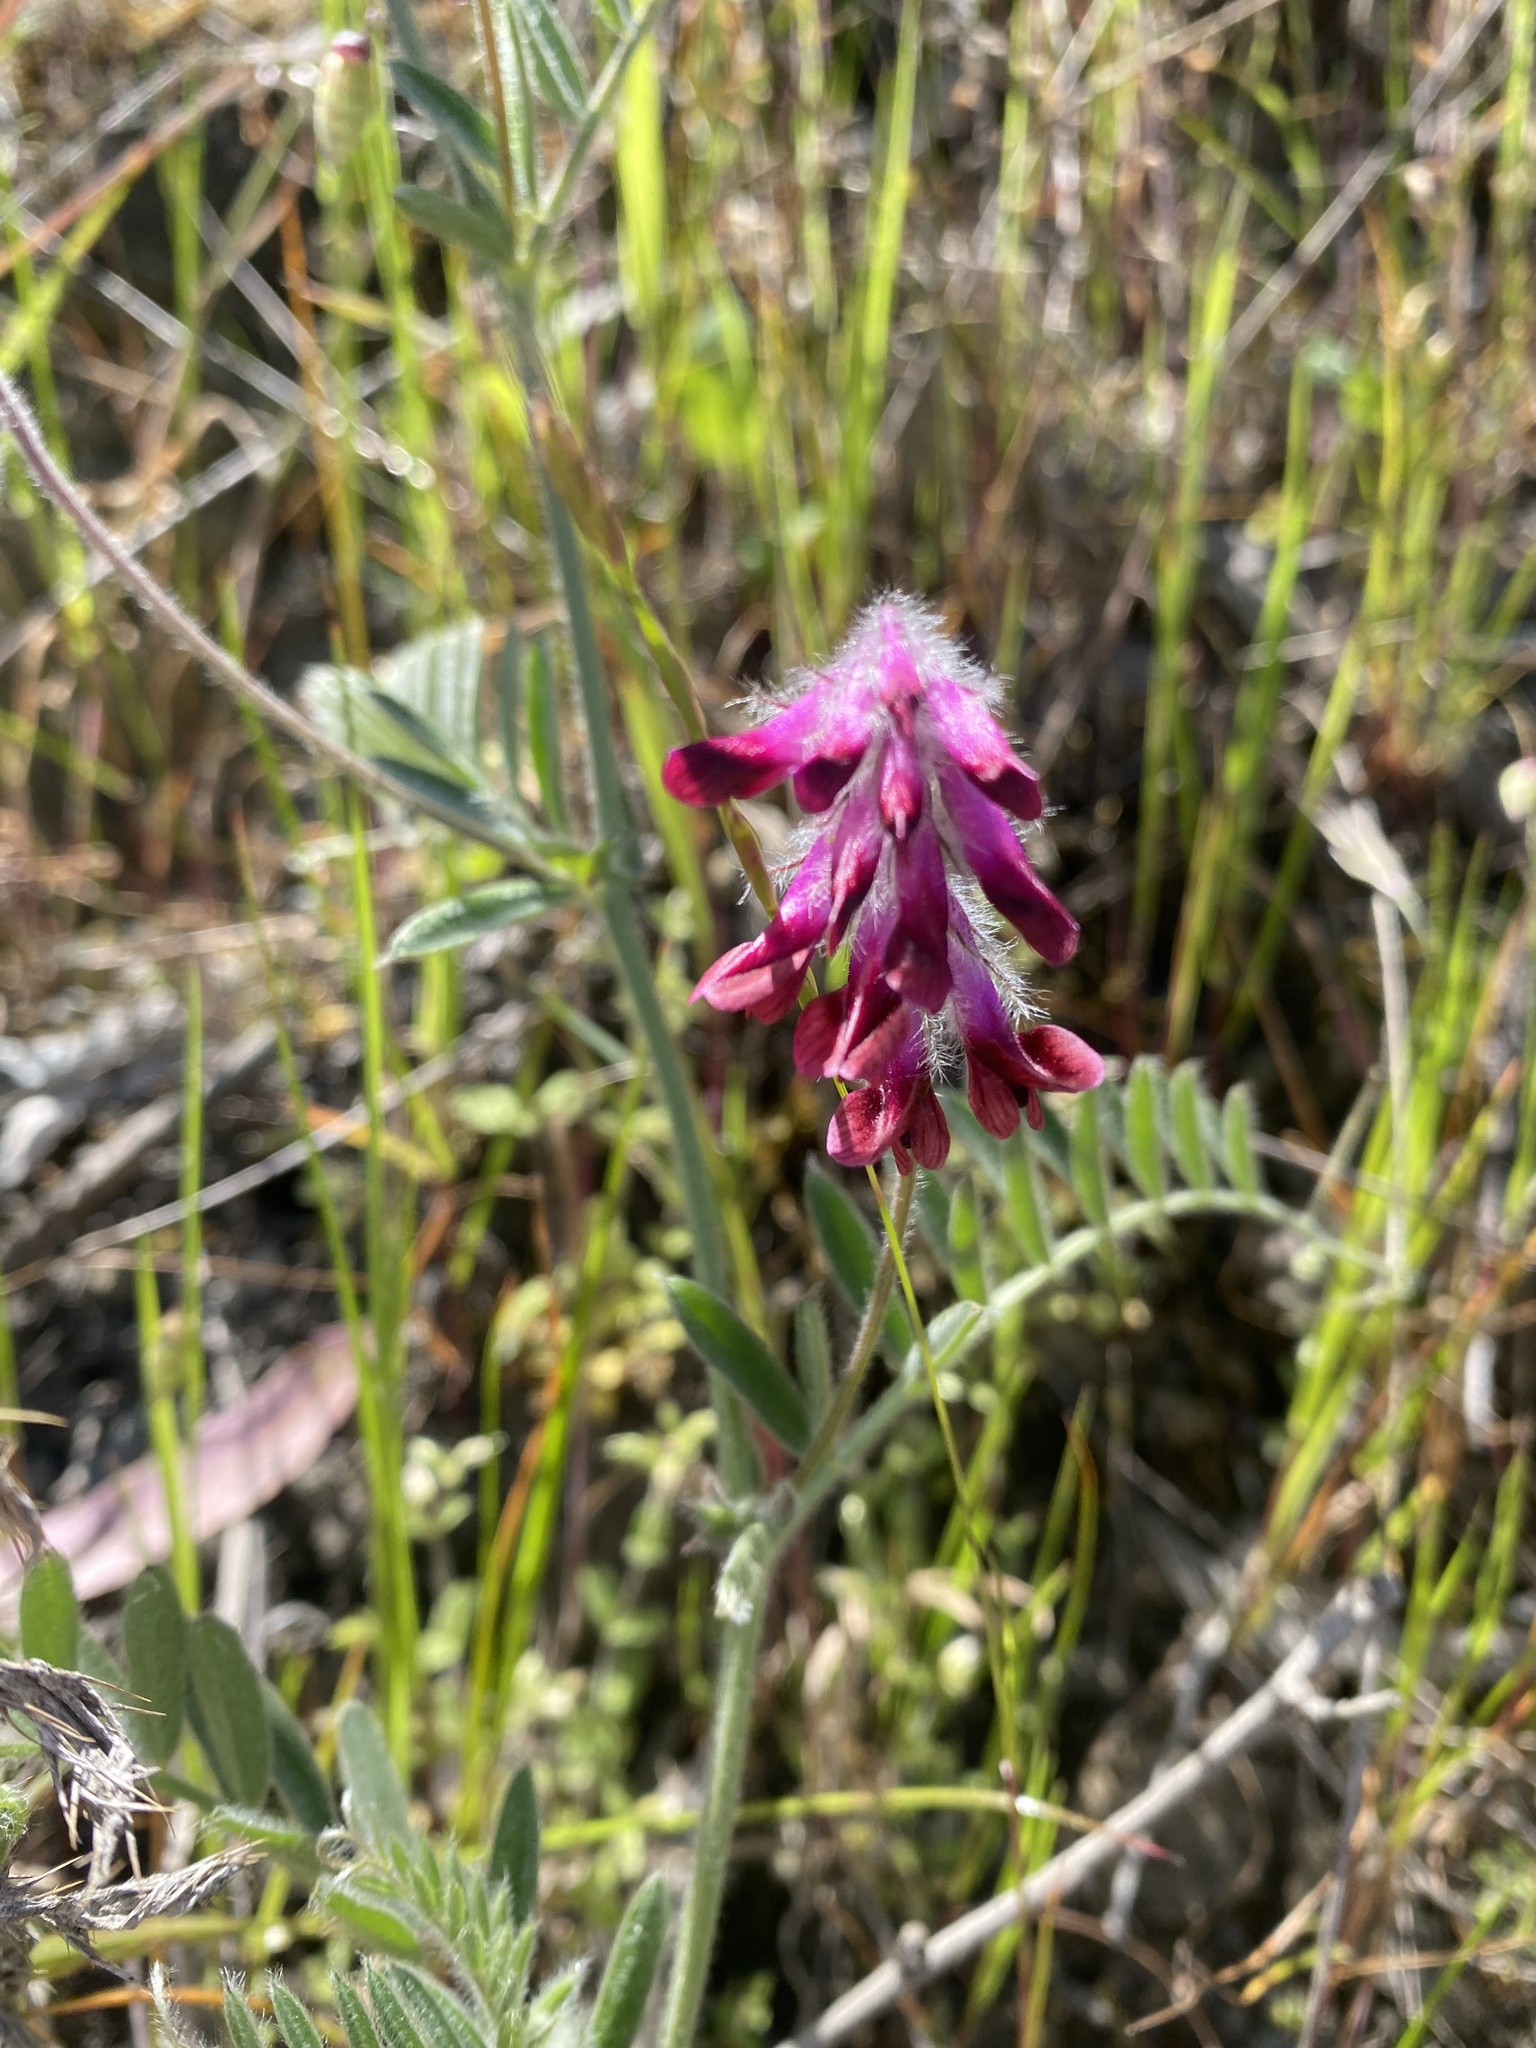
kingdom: Plantae
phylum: Tracheophyta
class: Magnoliopsida
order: Fabales
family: Fabaceae
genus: Vicia
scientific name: Vicia benghalensis
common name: Purple vetch
